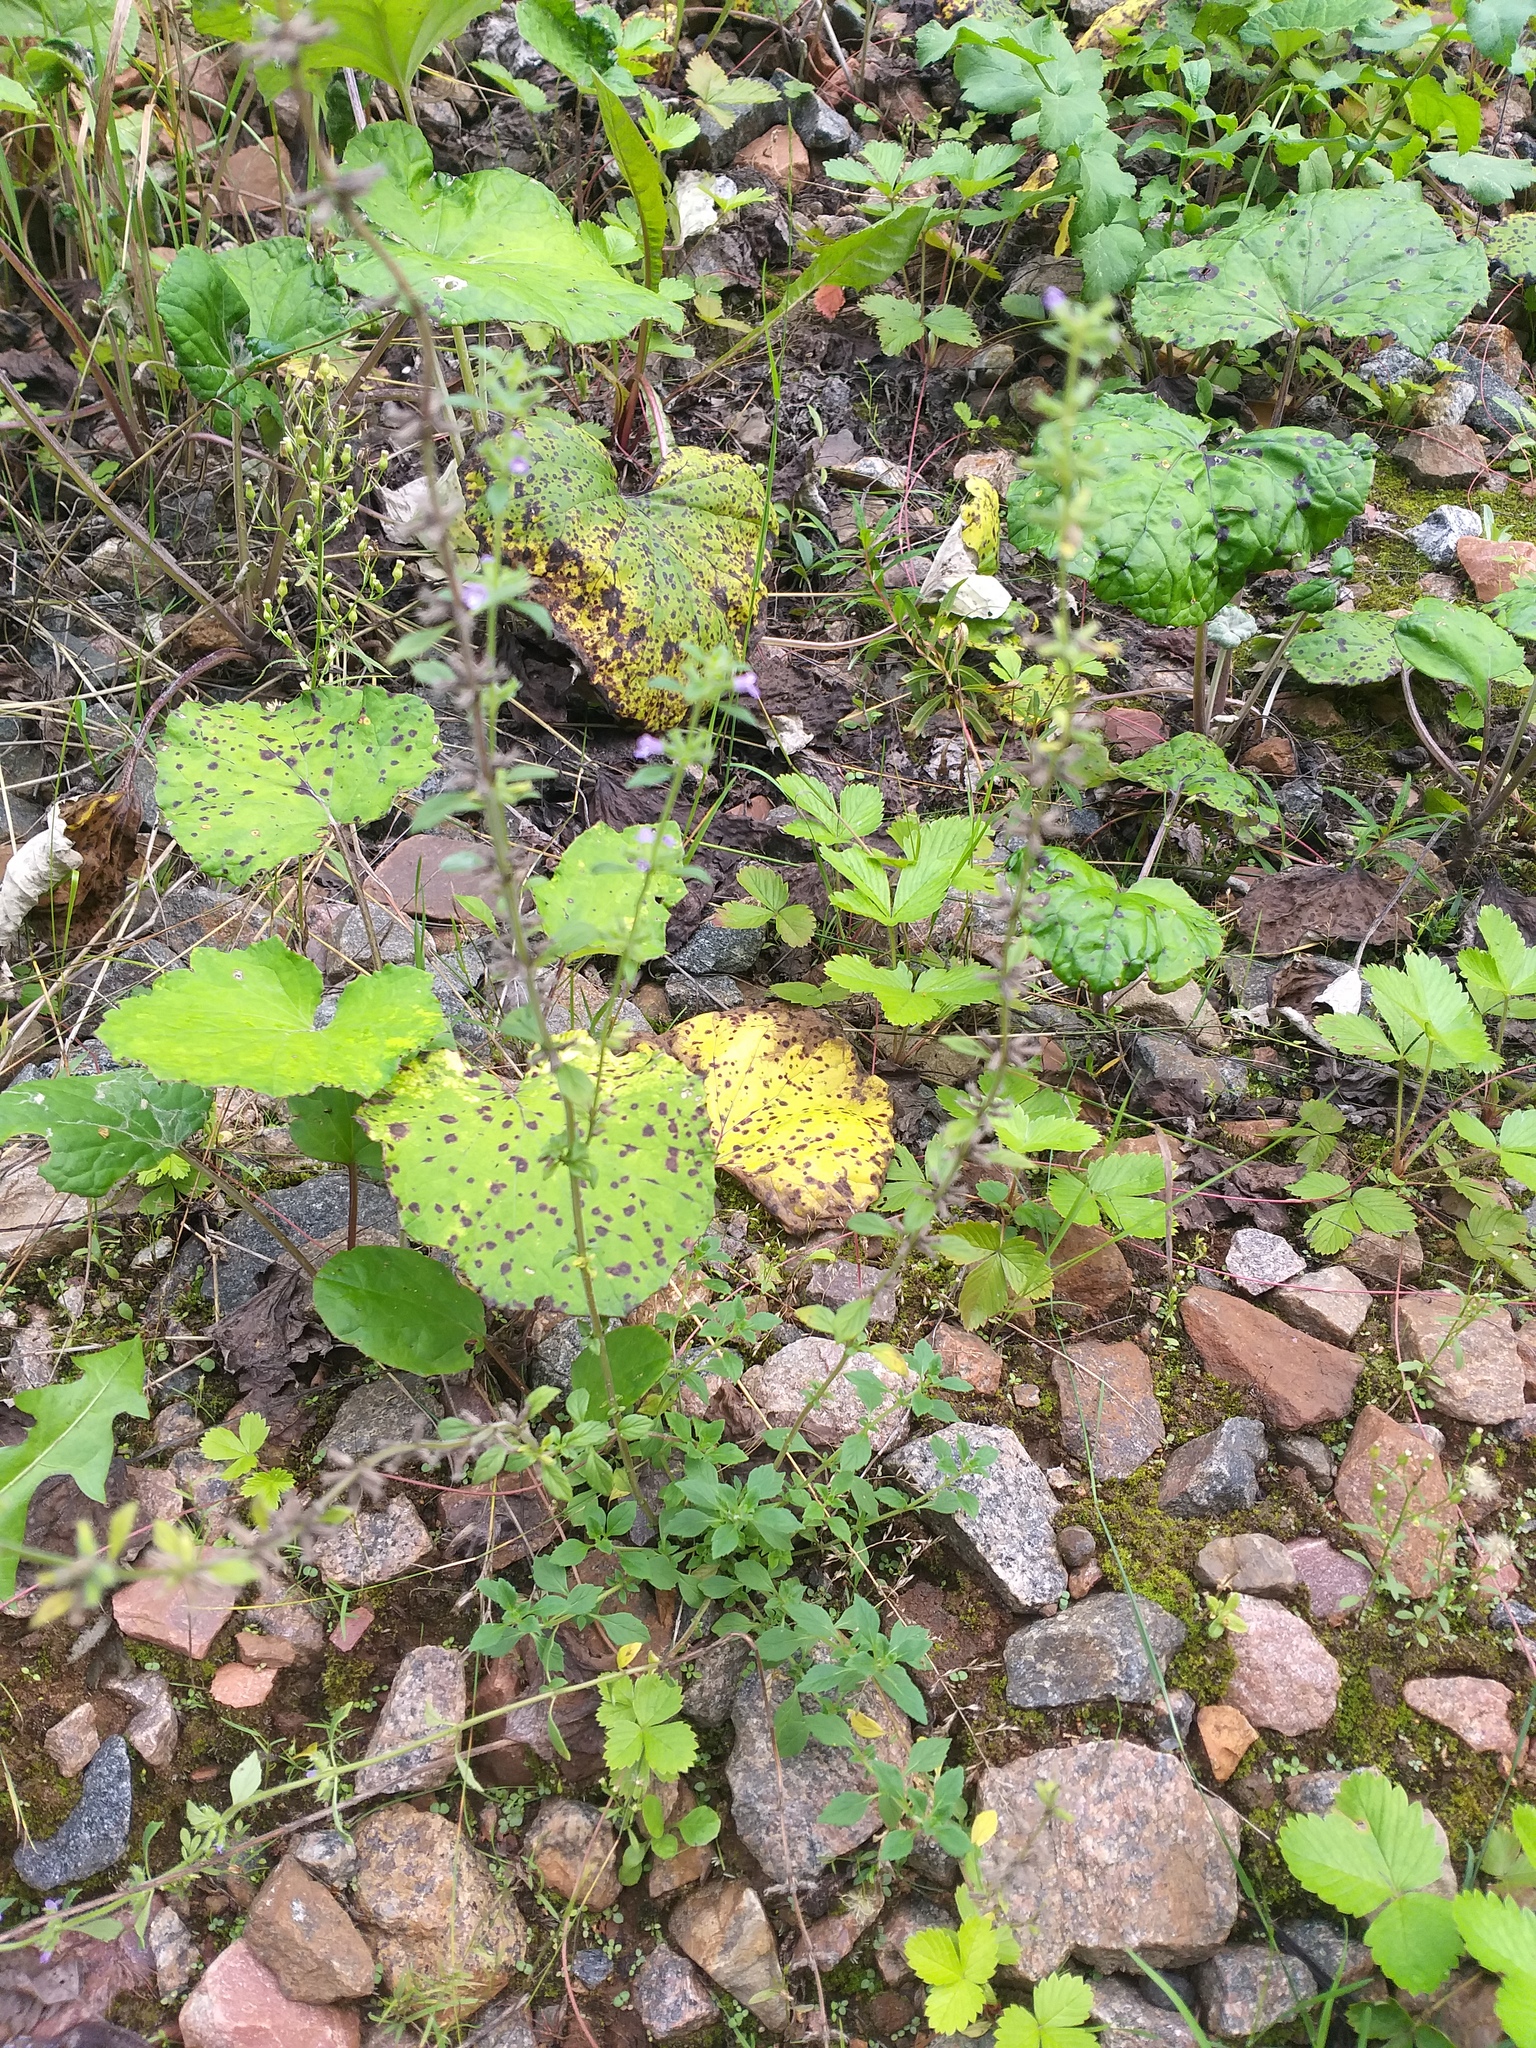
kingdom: Plantae
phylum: Tracheophyta
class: Magnoliopsida
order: Lamiales
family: Lamiaceae
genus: Clinopodium
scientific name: Clinopodium acinos
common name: Basil thyme
